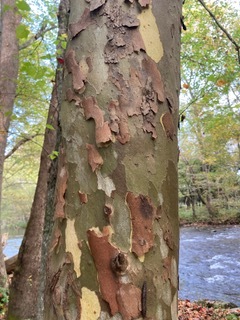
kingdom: Plantae
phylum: Tracheophyta
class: Magnoliopsida
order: Proteales
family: Platanaceae
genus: Platanus
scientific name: Platanus occidentalis
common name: American sycamore
